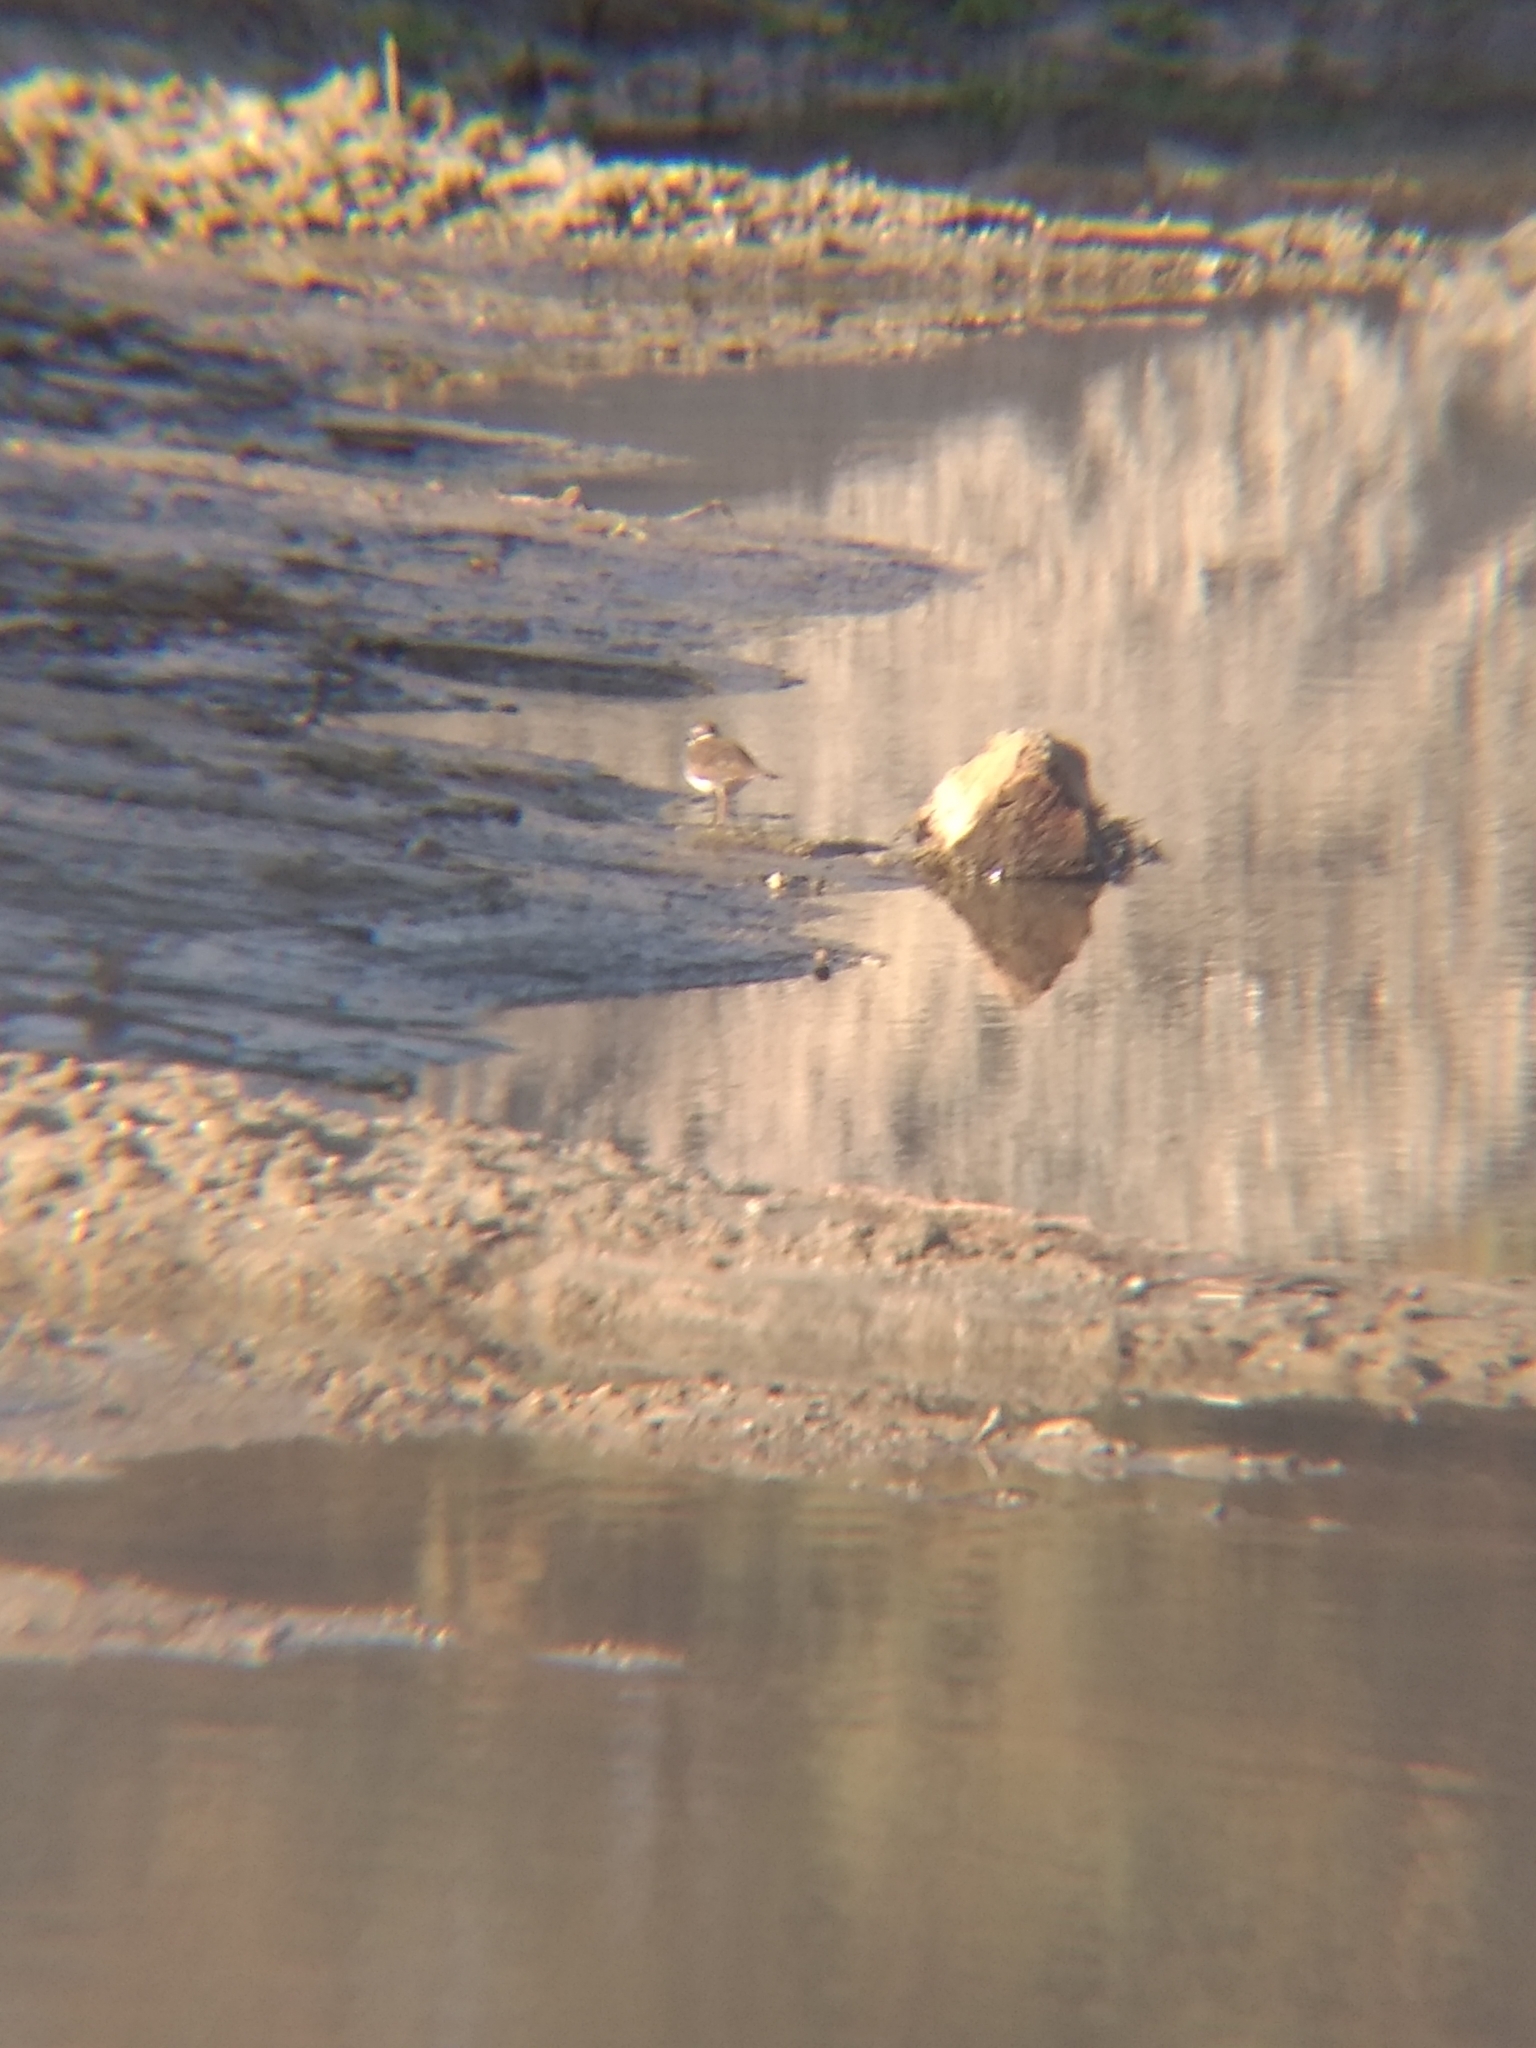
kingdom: Animalia
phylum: Chordata
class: Aves
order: Charadriiformes
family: Charadriidae
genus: Charadrius
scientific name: Charadrius vociferus
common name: Killdeer
